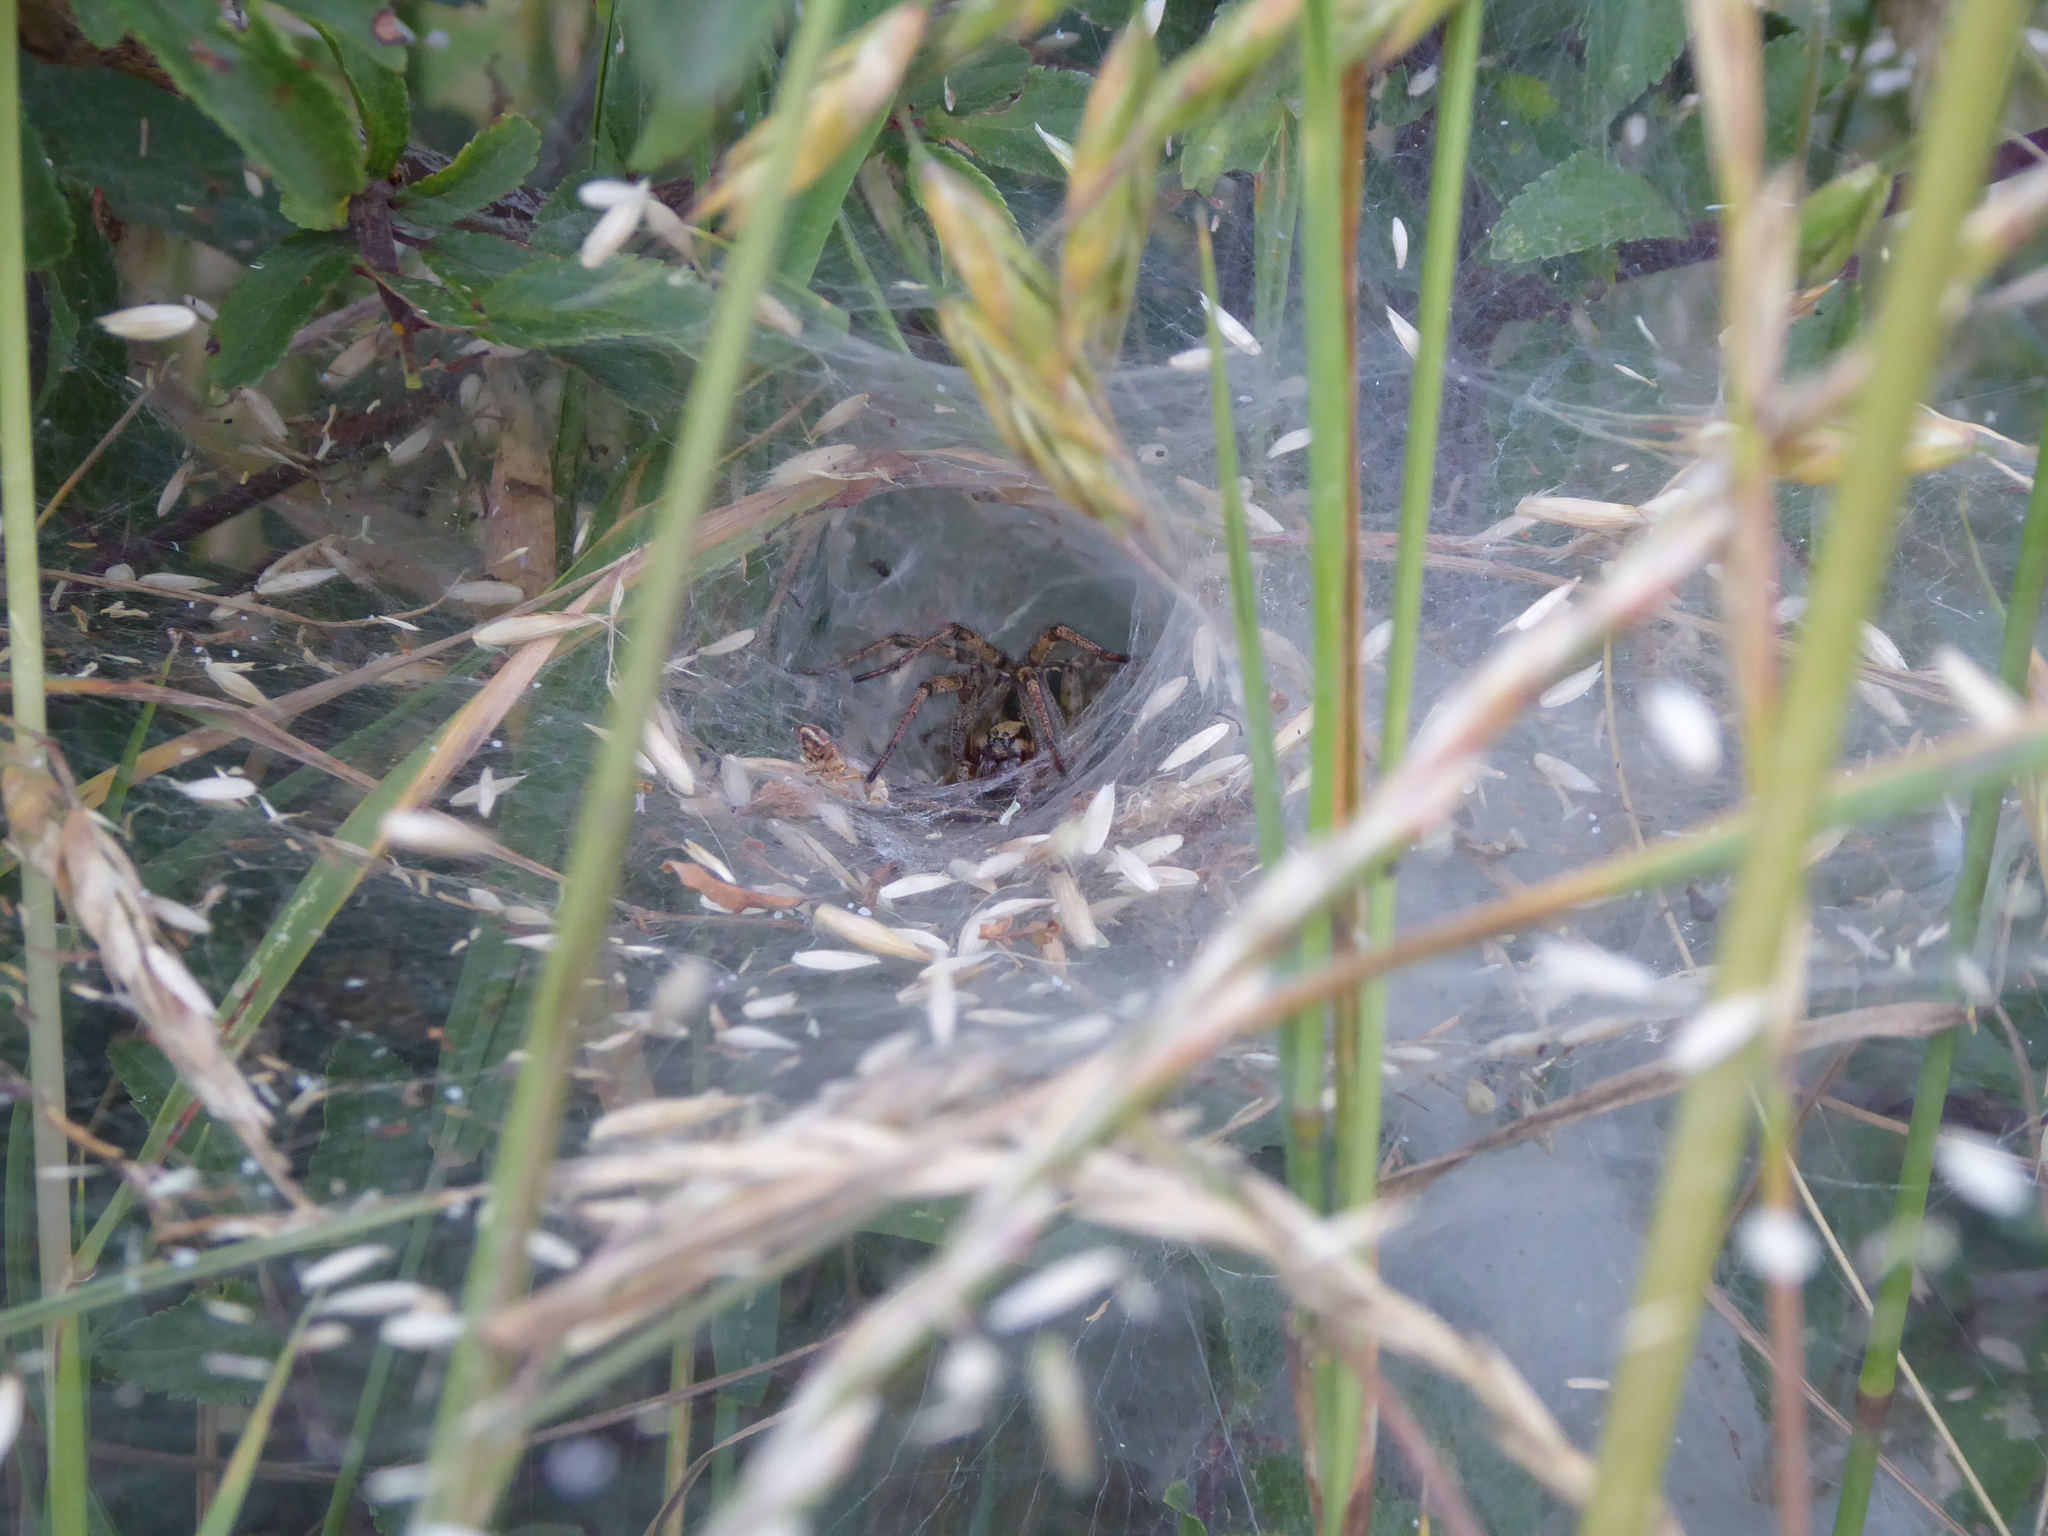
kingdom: Animalia
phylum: Arthropoda
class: Arachnida
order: Araneae
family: Agelenidae
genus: Agelena
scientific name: Agelena labyrinthica
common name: Labyrinth spider
